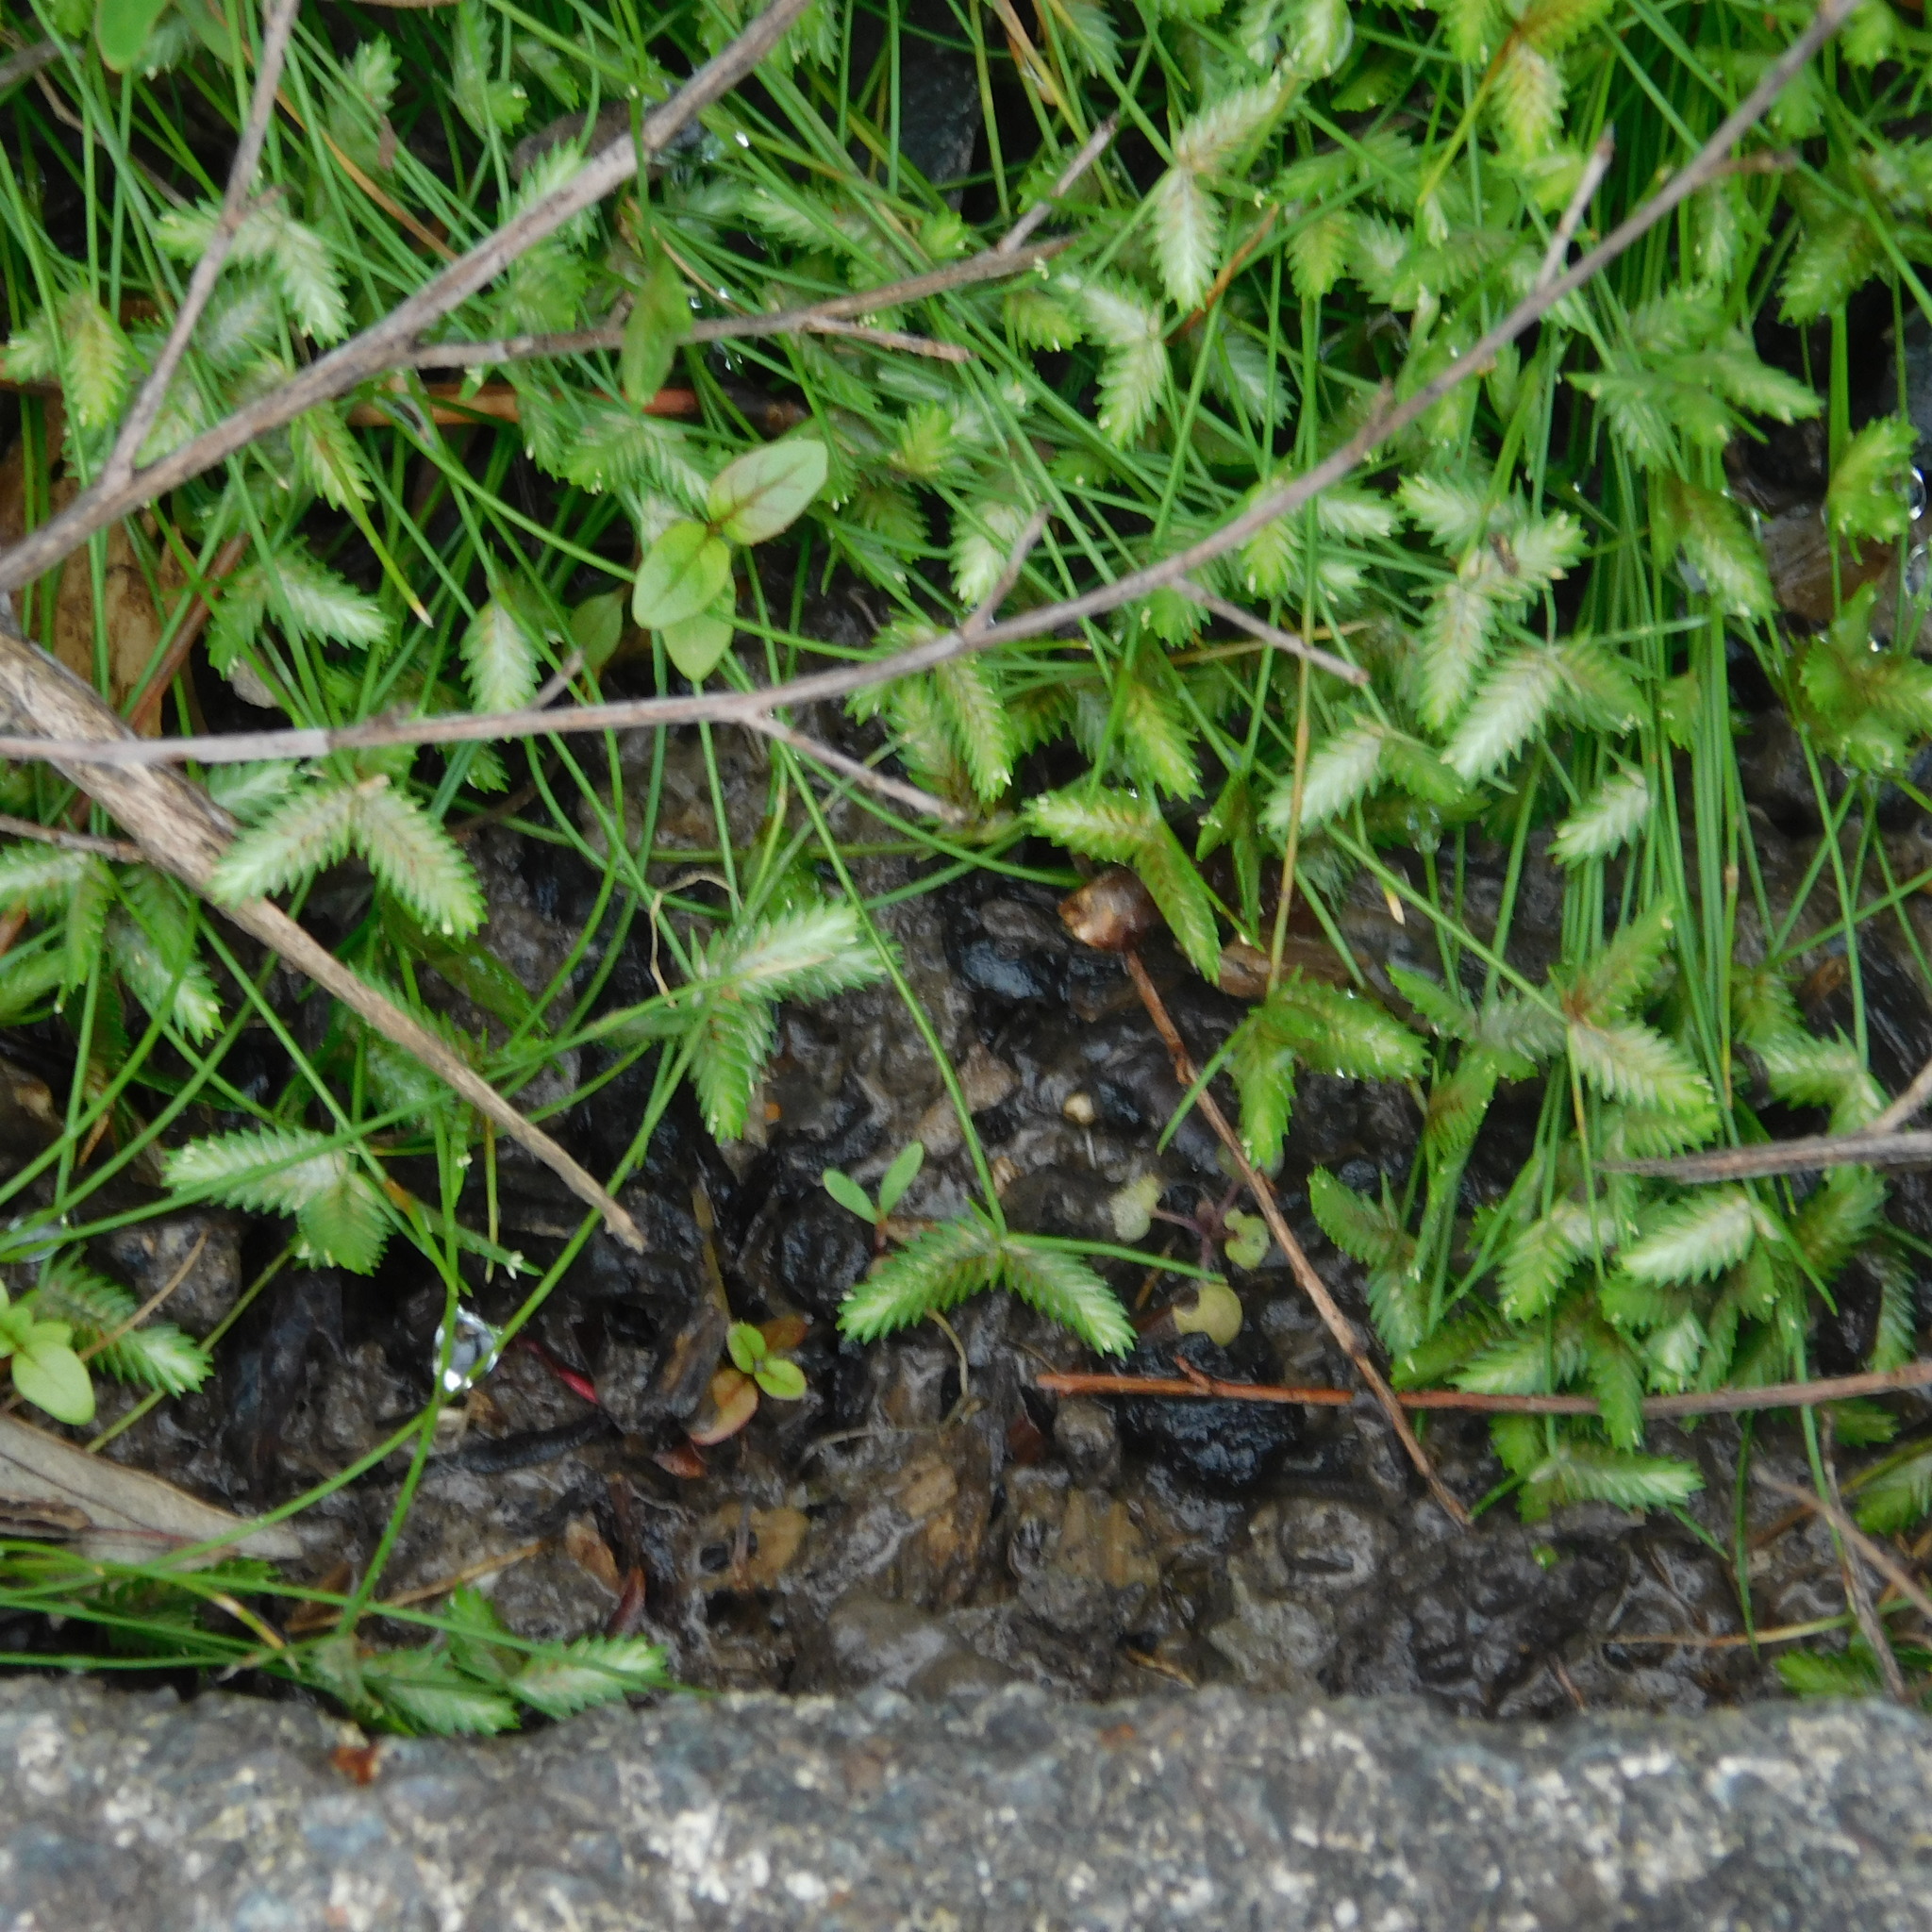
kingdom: Plantae
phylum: Tracheophyta
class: Liliopsida
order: Poales
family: Cyperaceae
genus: Isolepis
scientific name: Isolepis levynsiana
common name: Sedge
